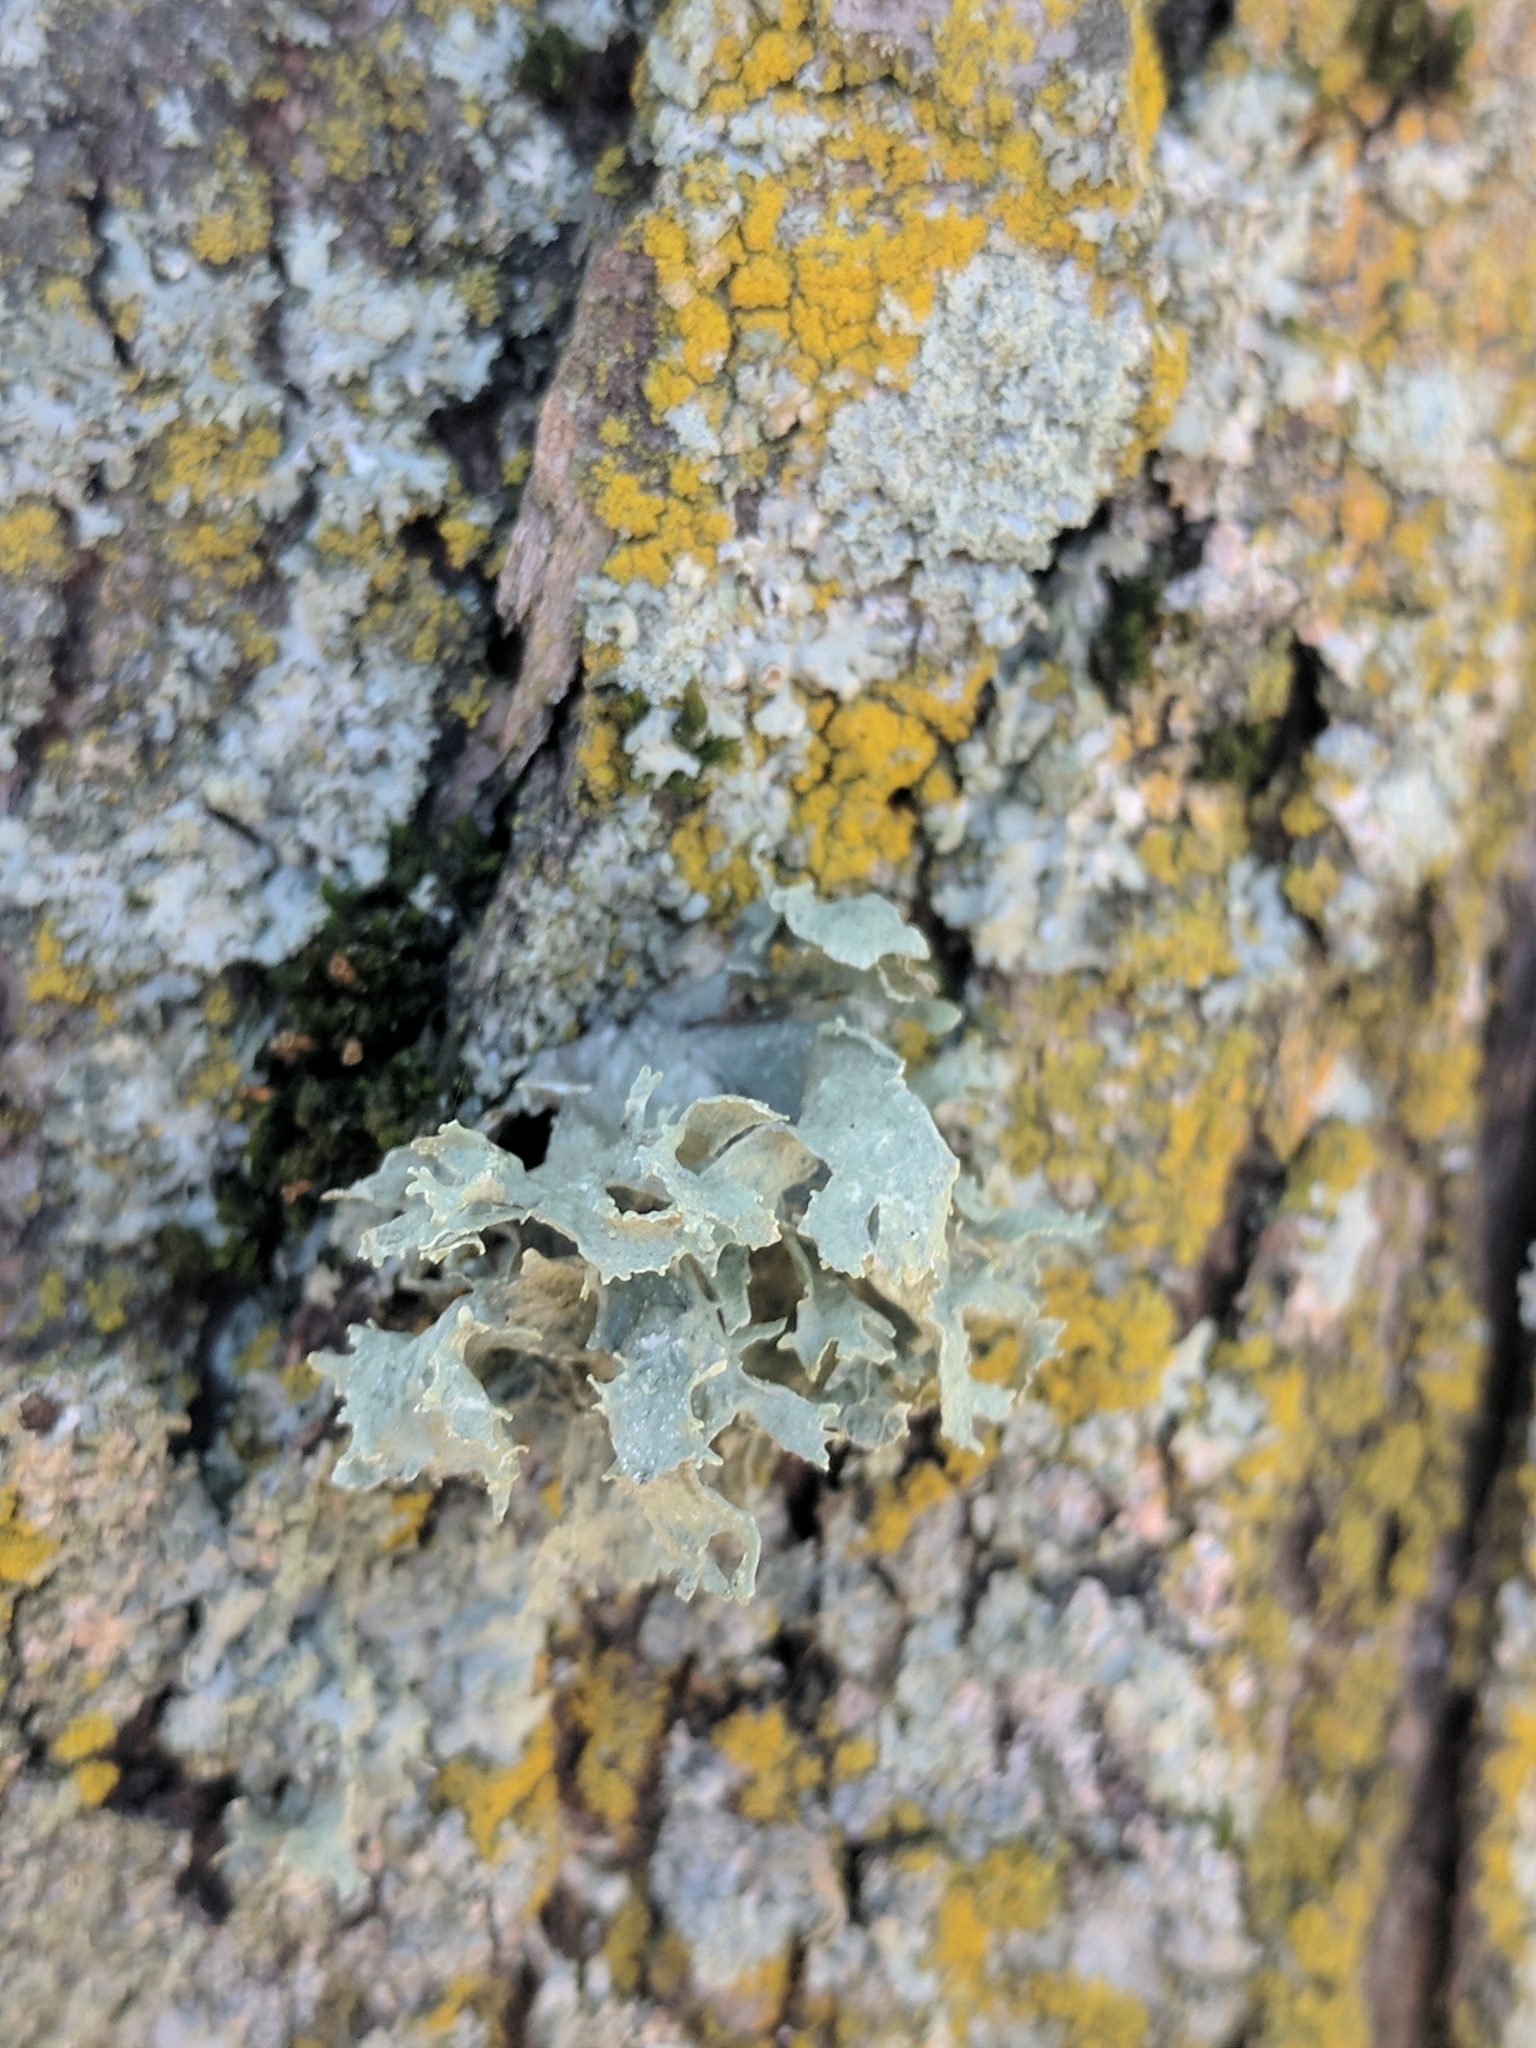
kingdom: Fungi
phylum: Ascomycota
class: Lecanoromycetes
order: Lecanorales
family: Ramalinaceae
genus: Ramalina
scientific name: Ramalina americana
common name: Sinewed bush lichen
